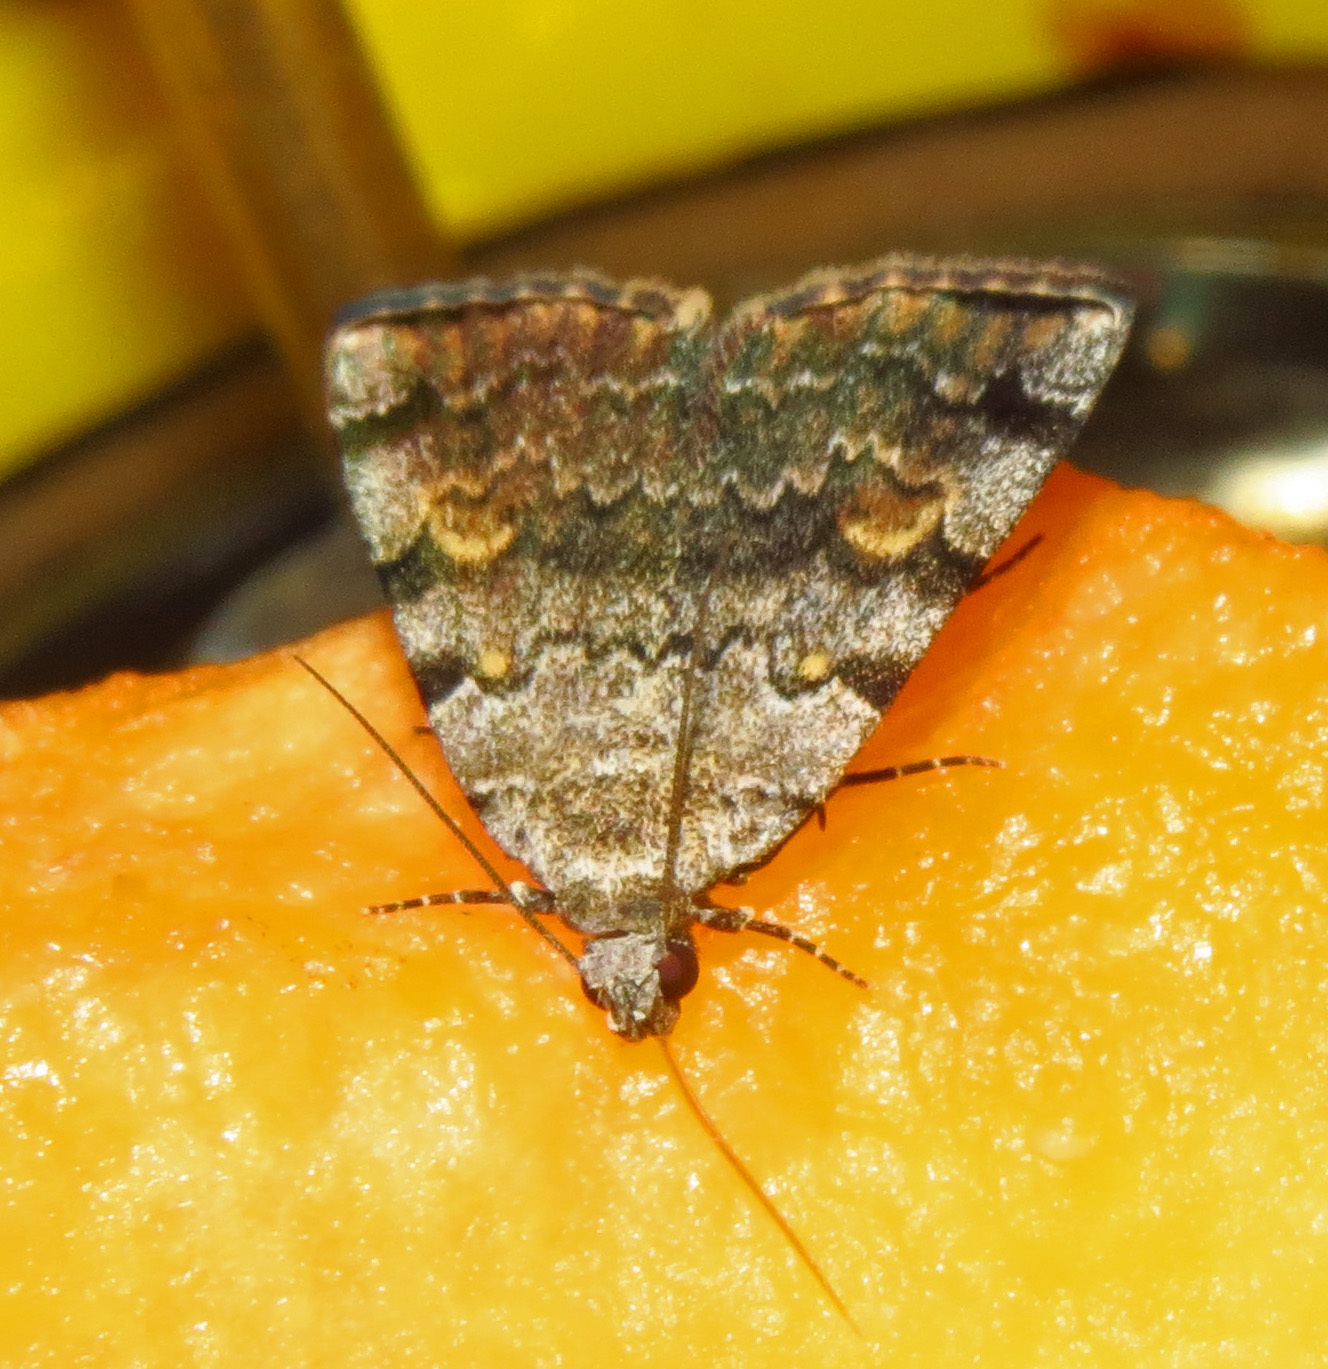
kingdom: Animalia
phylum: Arthropoda
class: Insecta
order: Lepidoptera
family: Erebidae
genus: Idia
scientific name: Idia americalis
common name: American idia moth
